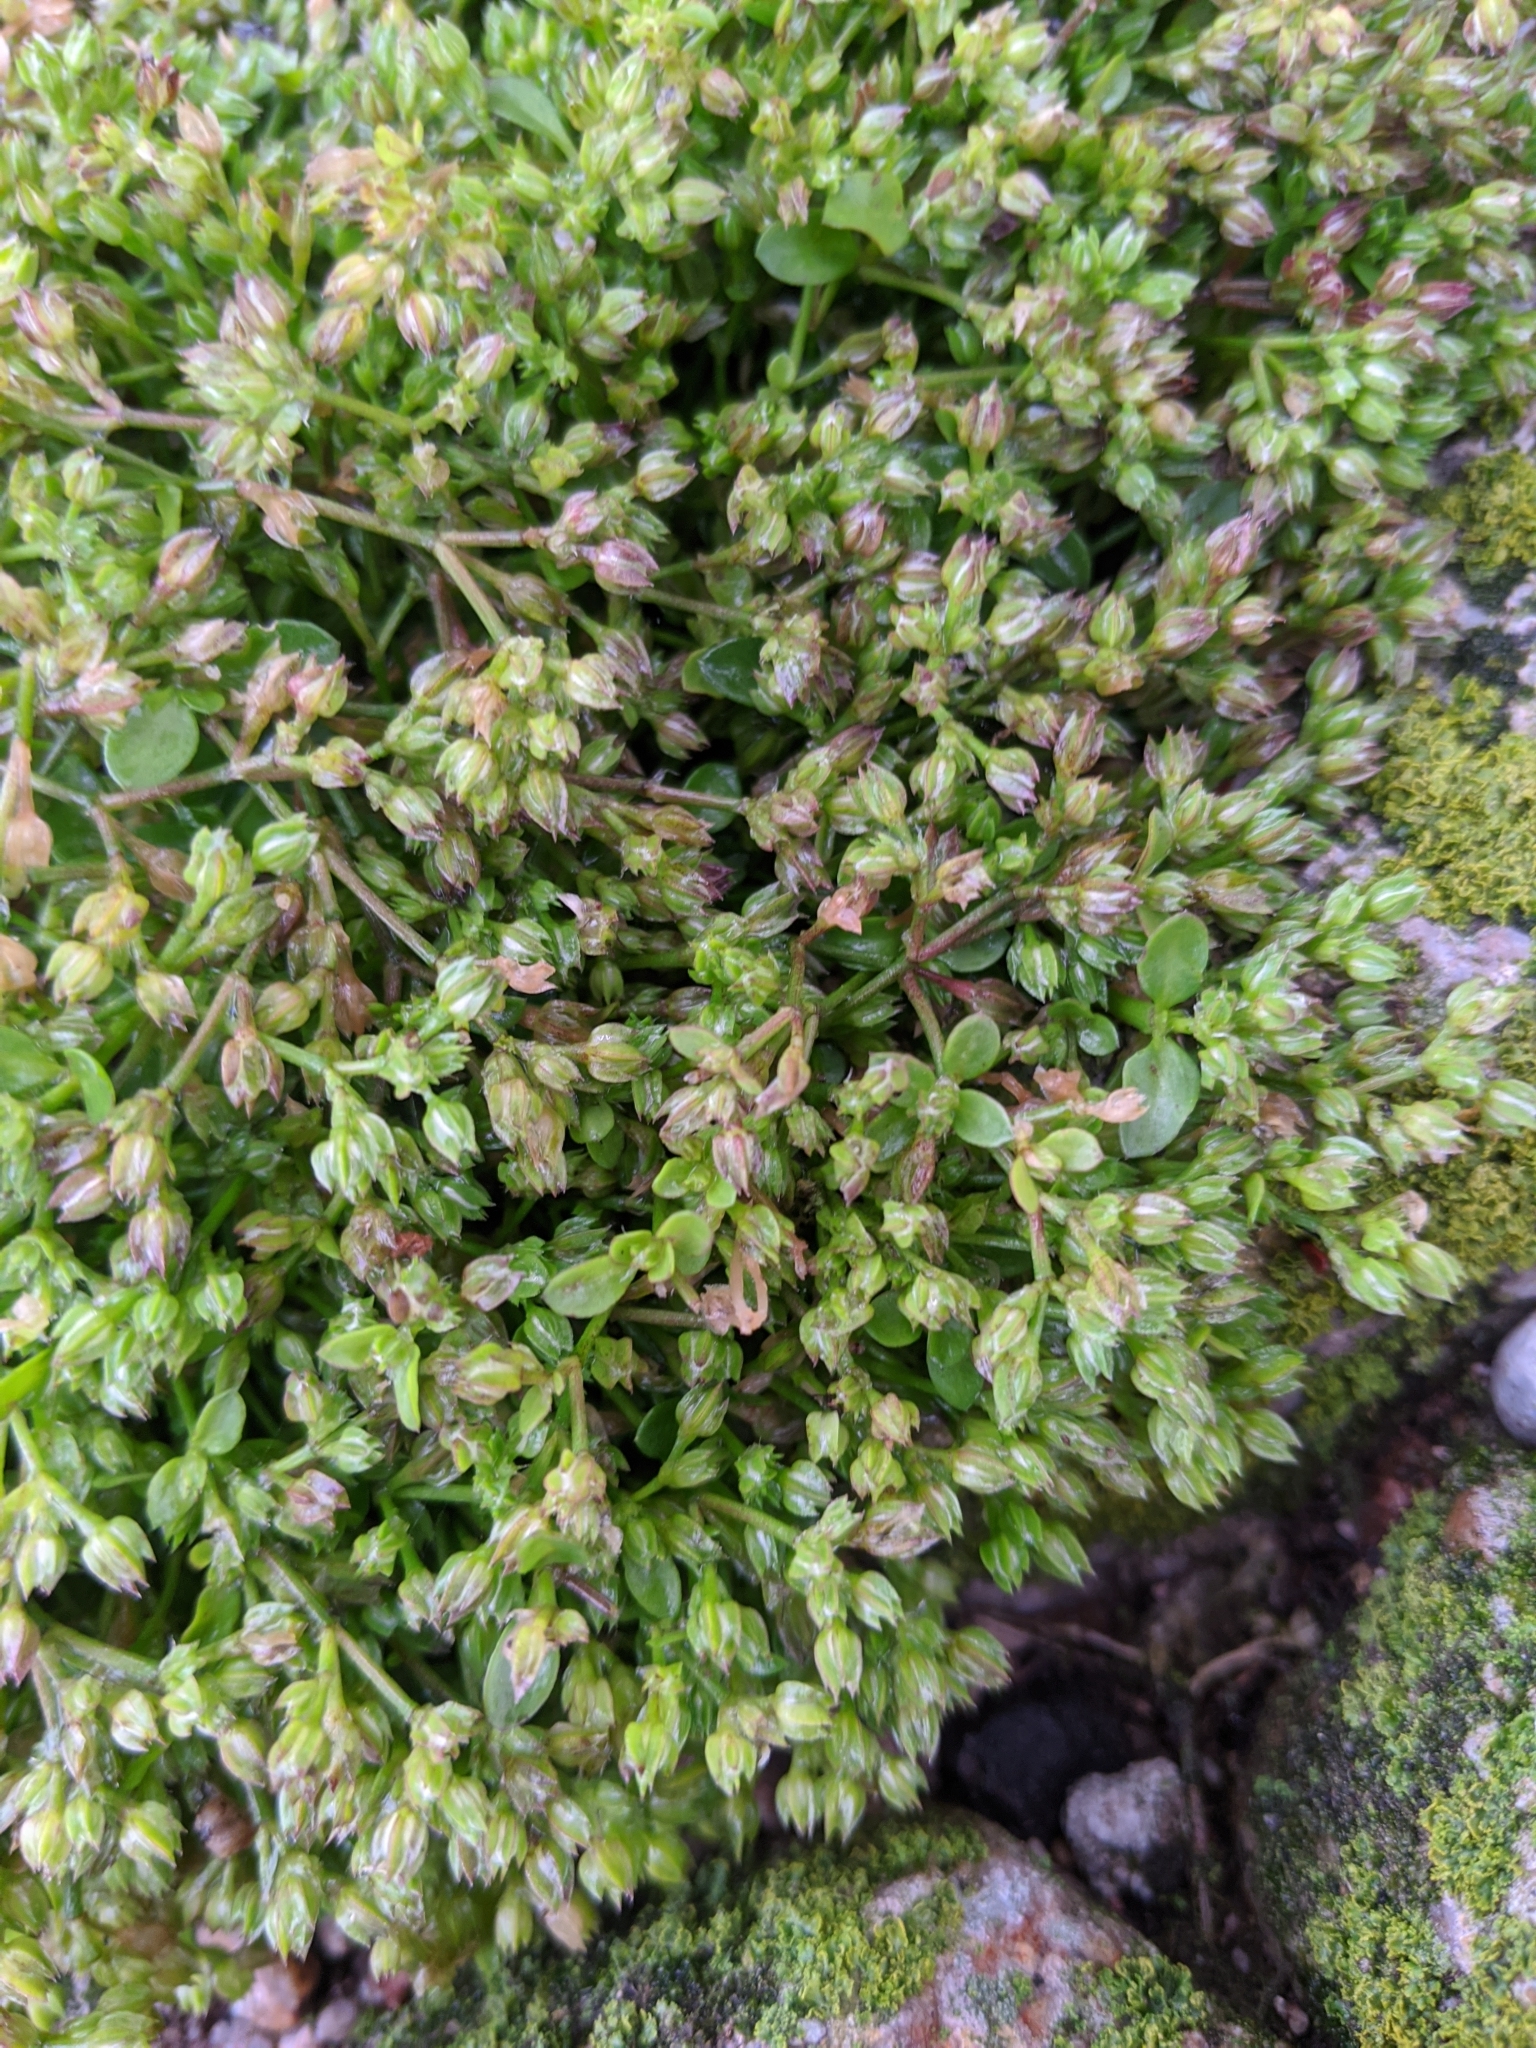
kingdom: Plantae
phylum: Tracheophyta
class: Magnoliopsida
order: Caryophyllales
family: Caryophyllaceae
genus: Polycarpon
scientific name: Polycarpon tetraphyllum
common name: Four-leaved all-seed
